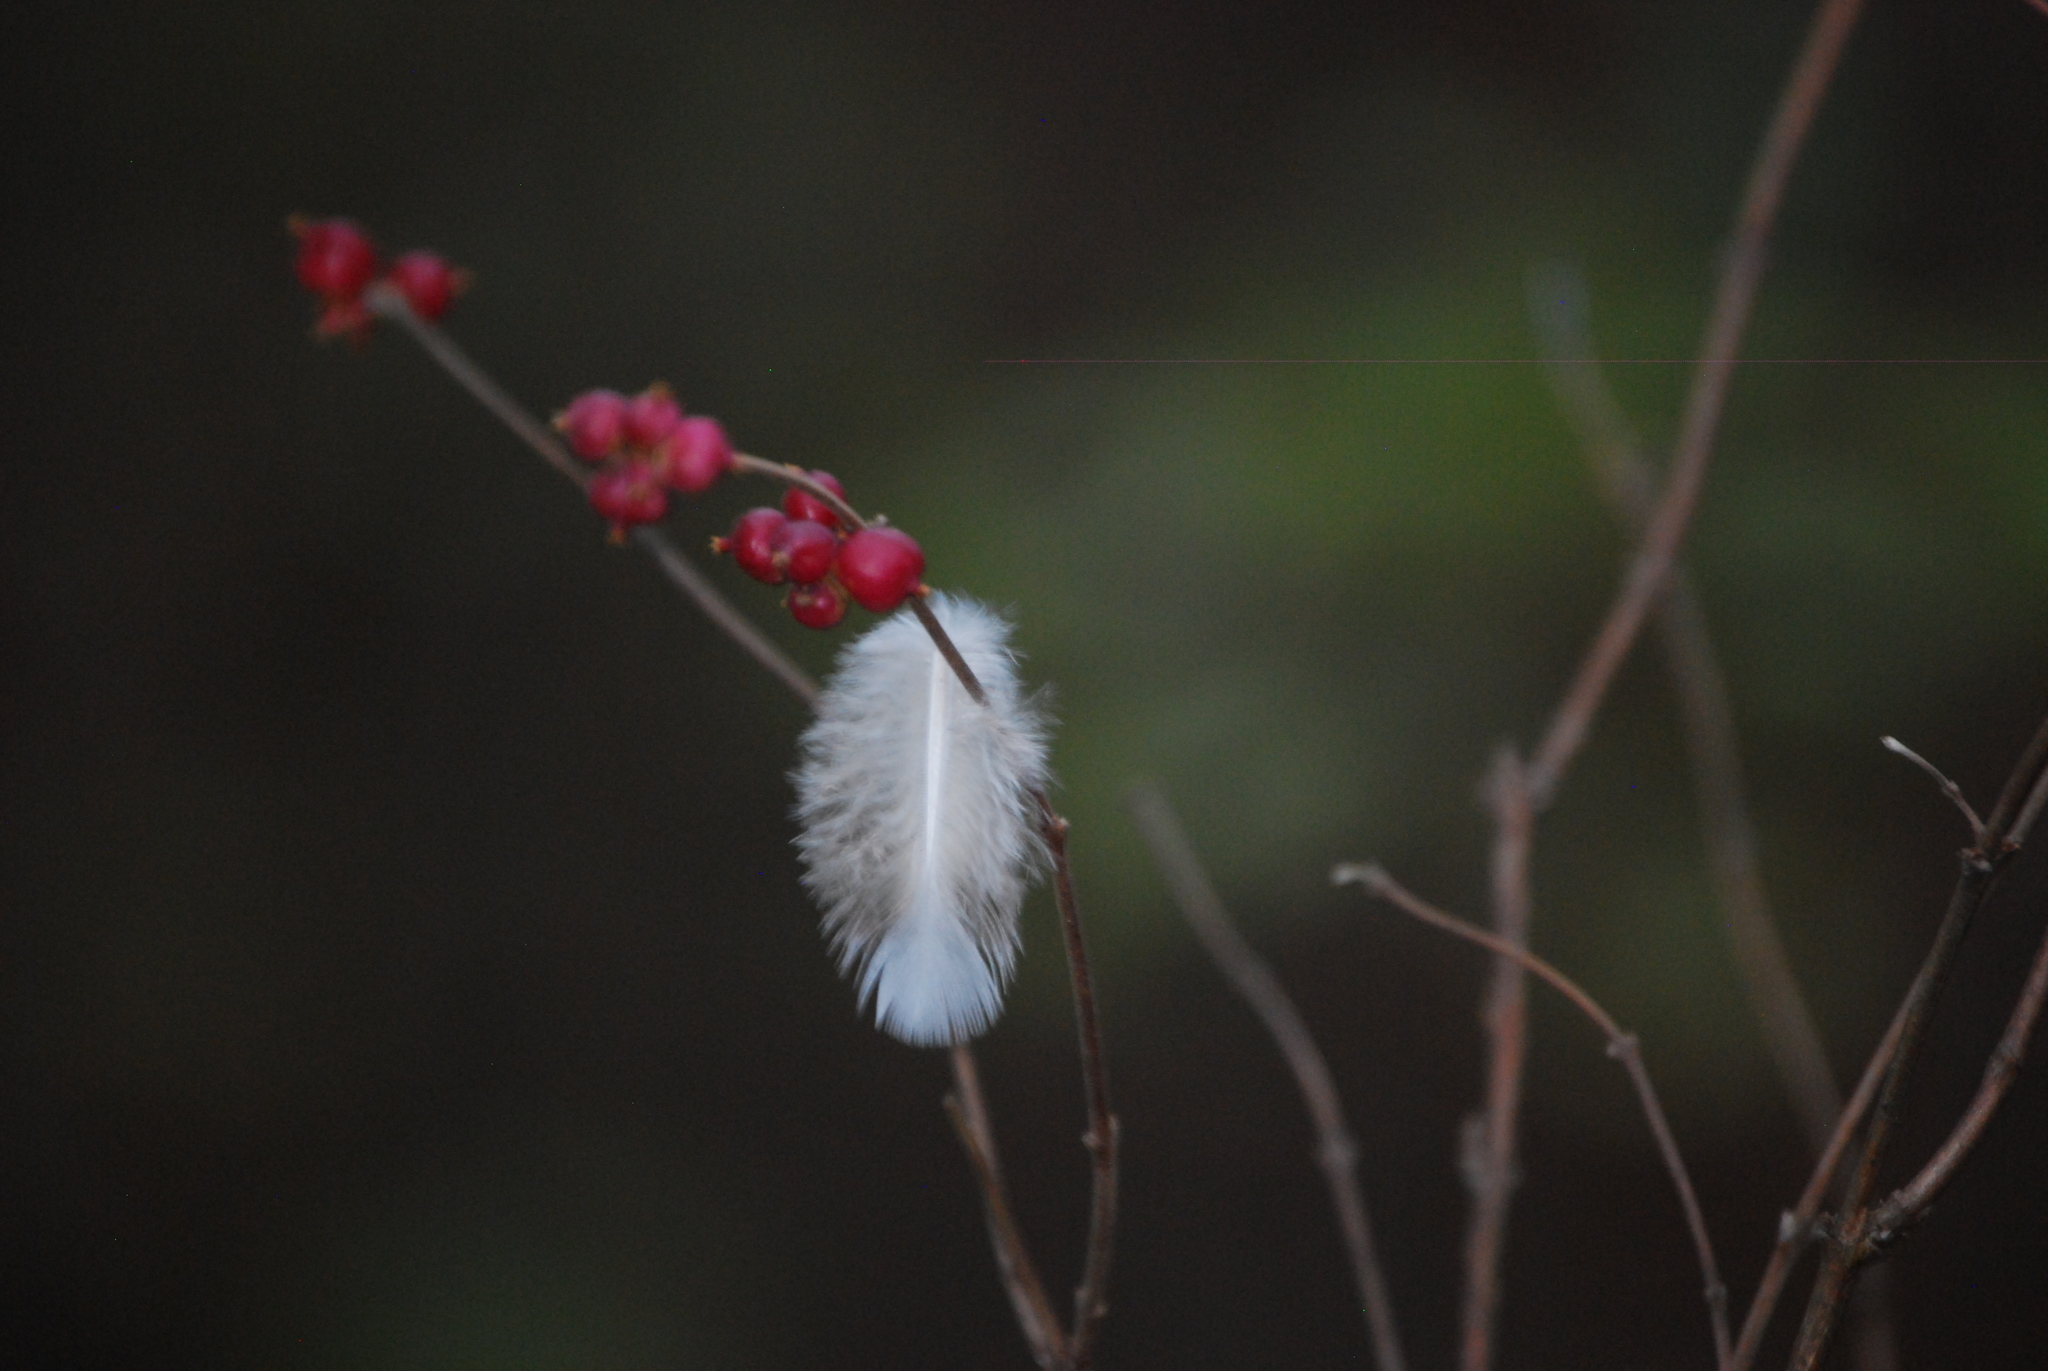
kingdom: Animalia
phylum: Chordata
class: Aves
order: Columbiformes
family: Columbidae
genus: Zenaida
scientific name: Zenaida macroura
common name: Mourning dove
